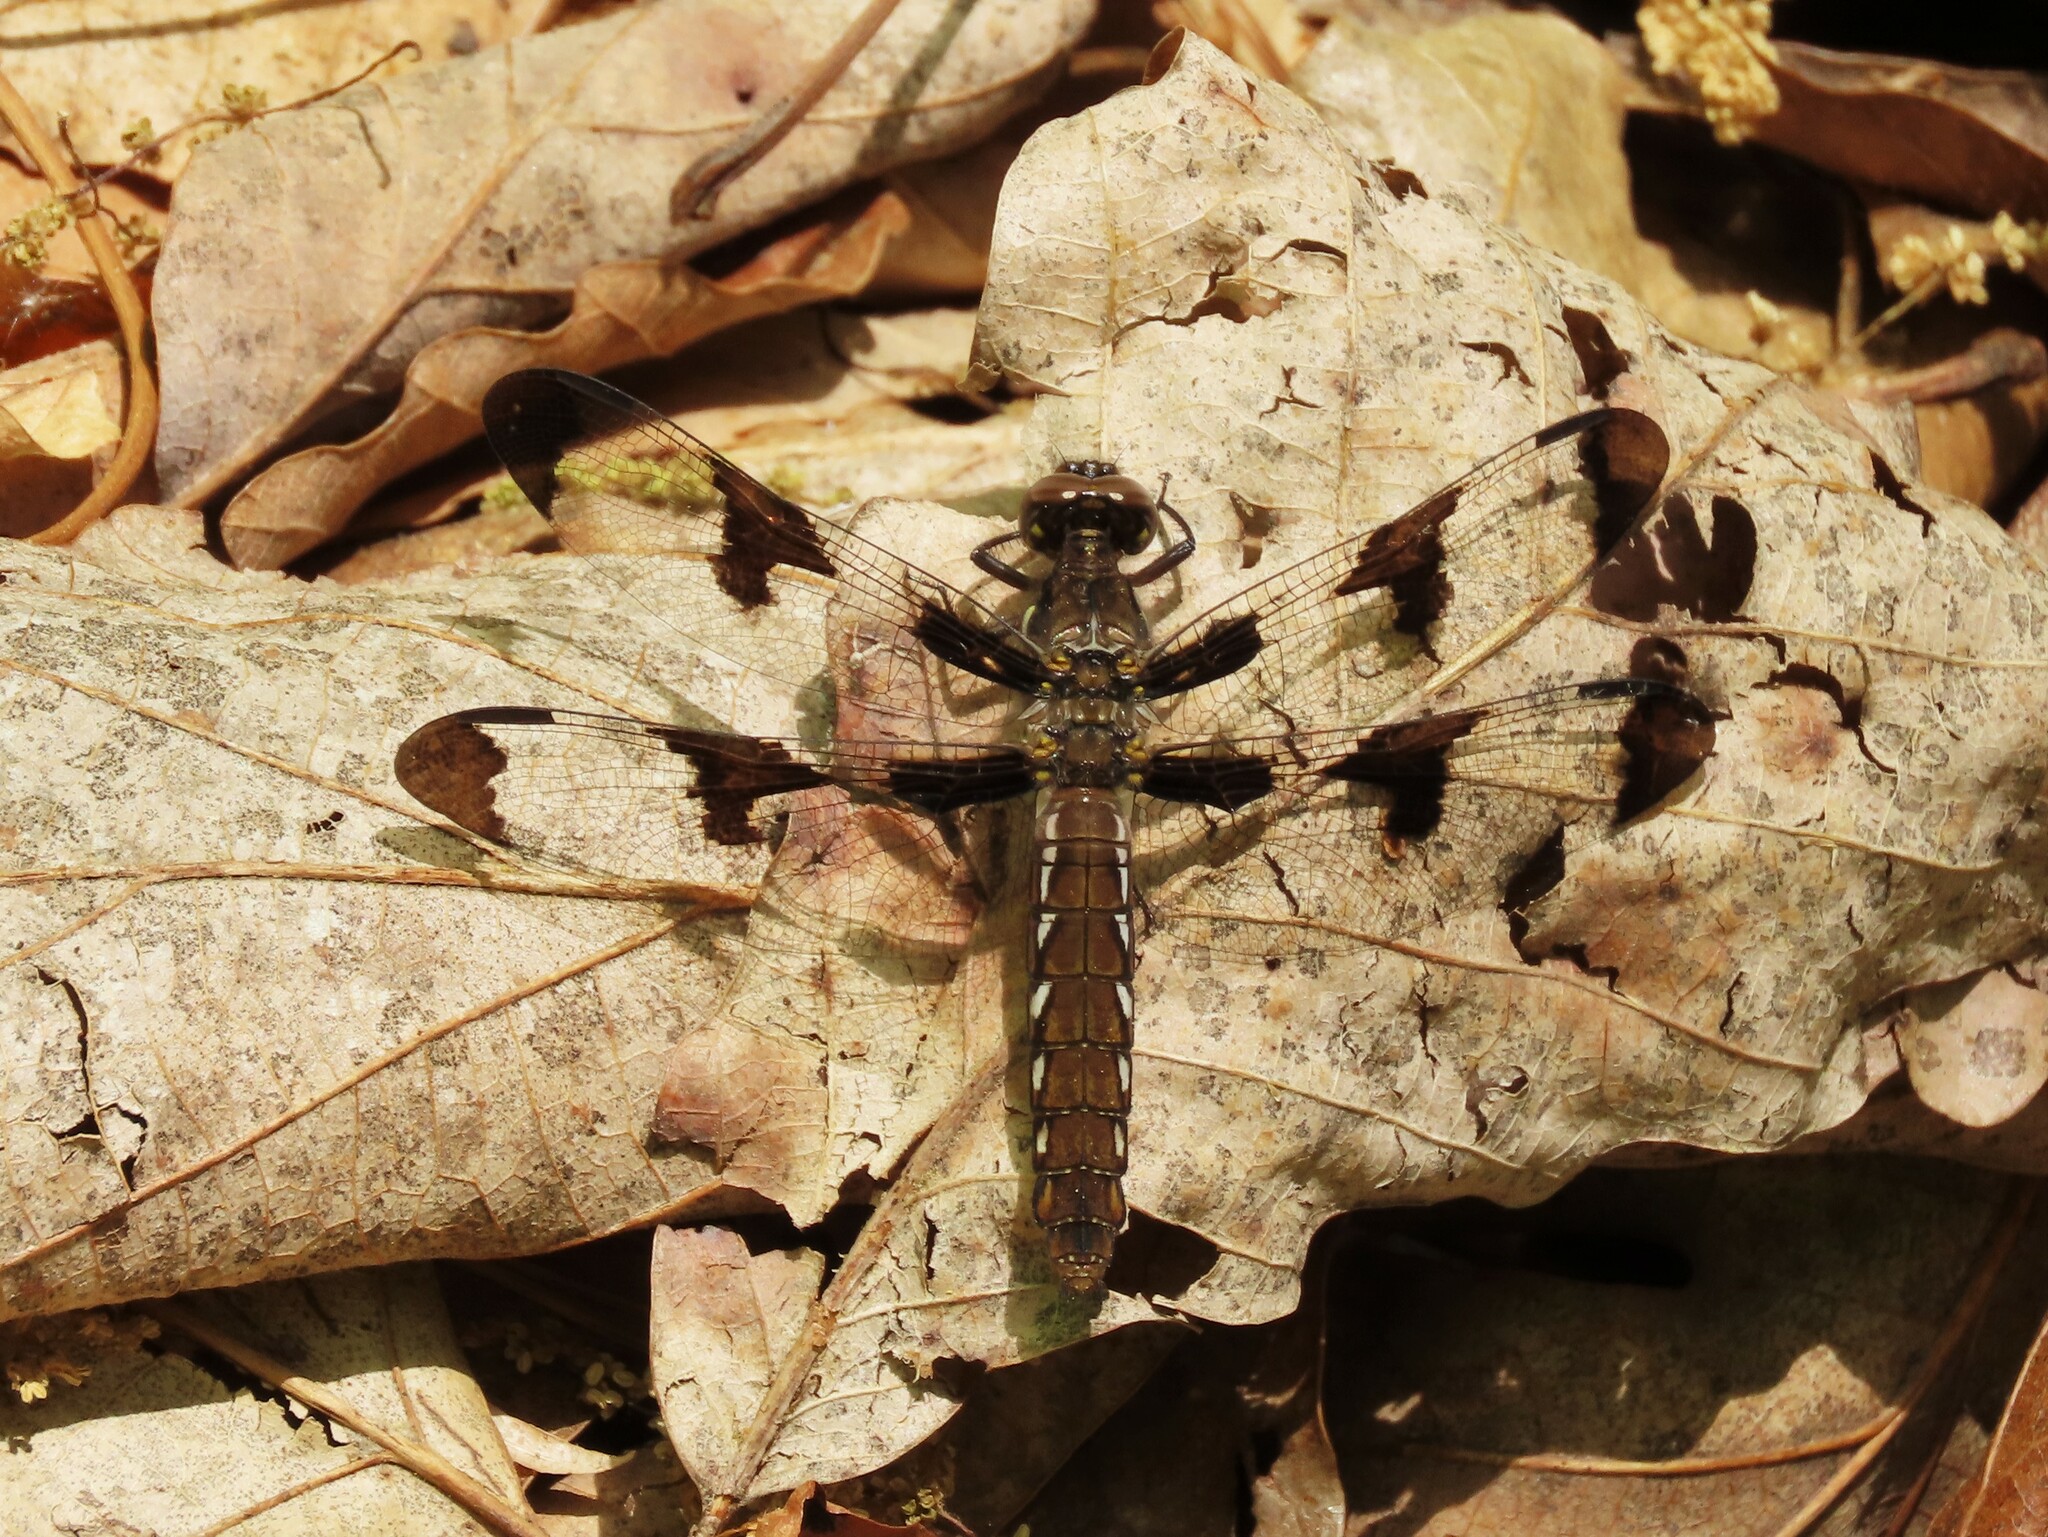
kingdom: Animalia
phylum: Arthropoda
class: Insecta
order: Odonata
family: Libellulidae
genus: Plathemis
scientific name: Plathemis lydia
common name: Common whitetail
